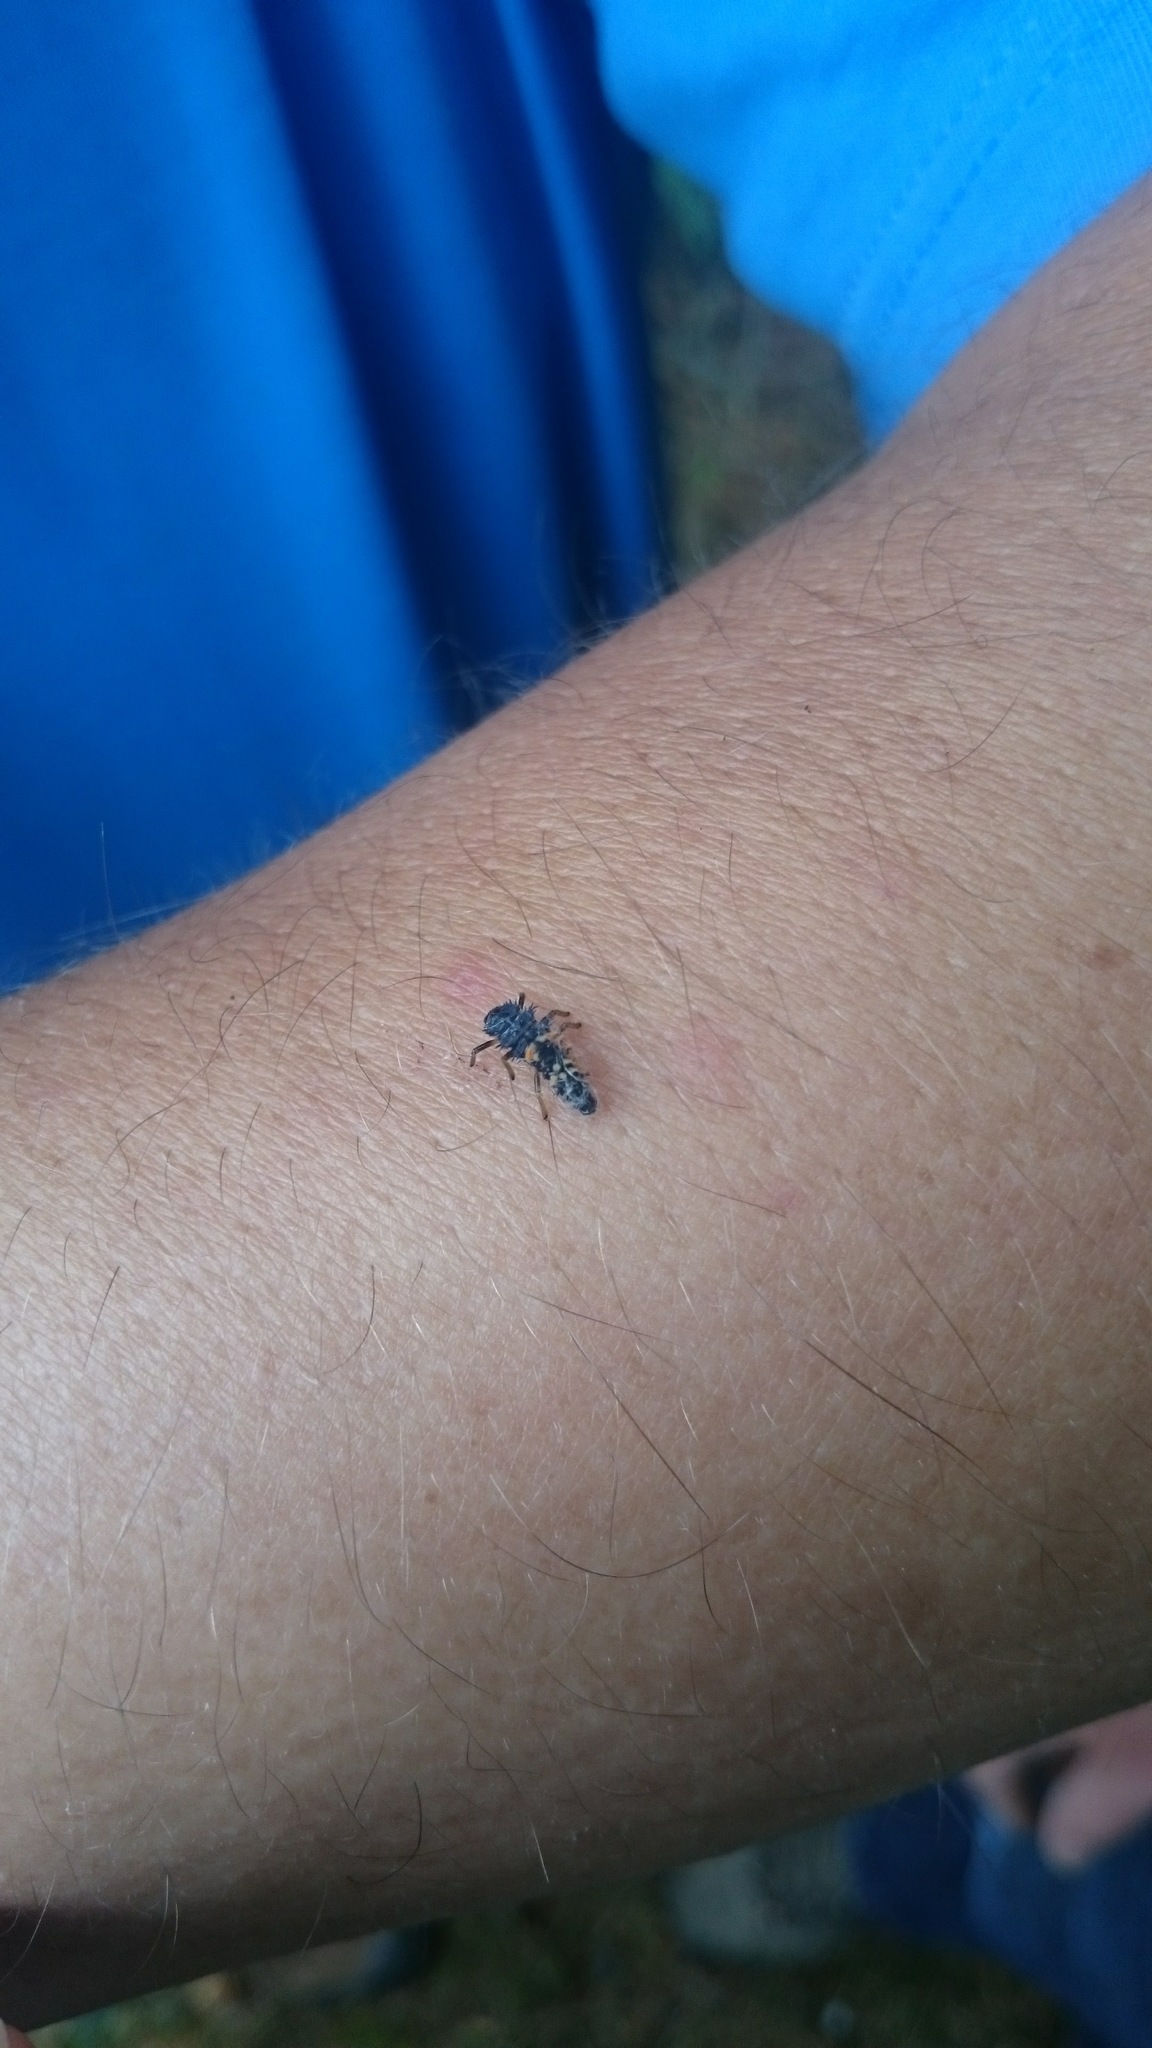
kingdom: Animalia
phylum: Arthropoda
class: Insecta
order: Coleoptera
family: Coccinellidae
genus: Harmonia
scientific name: Harmonia axyridis
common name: Harlequin ladybird
